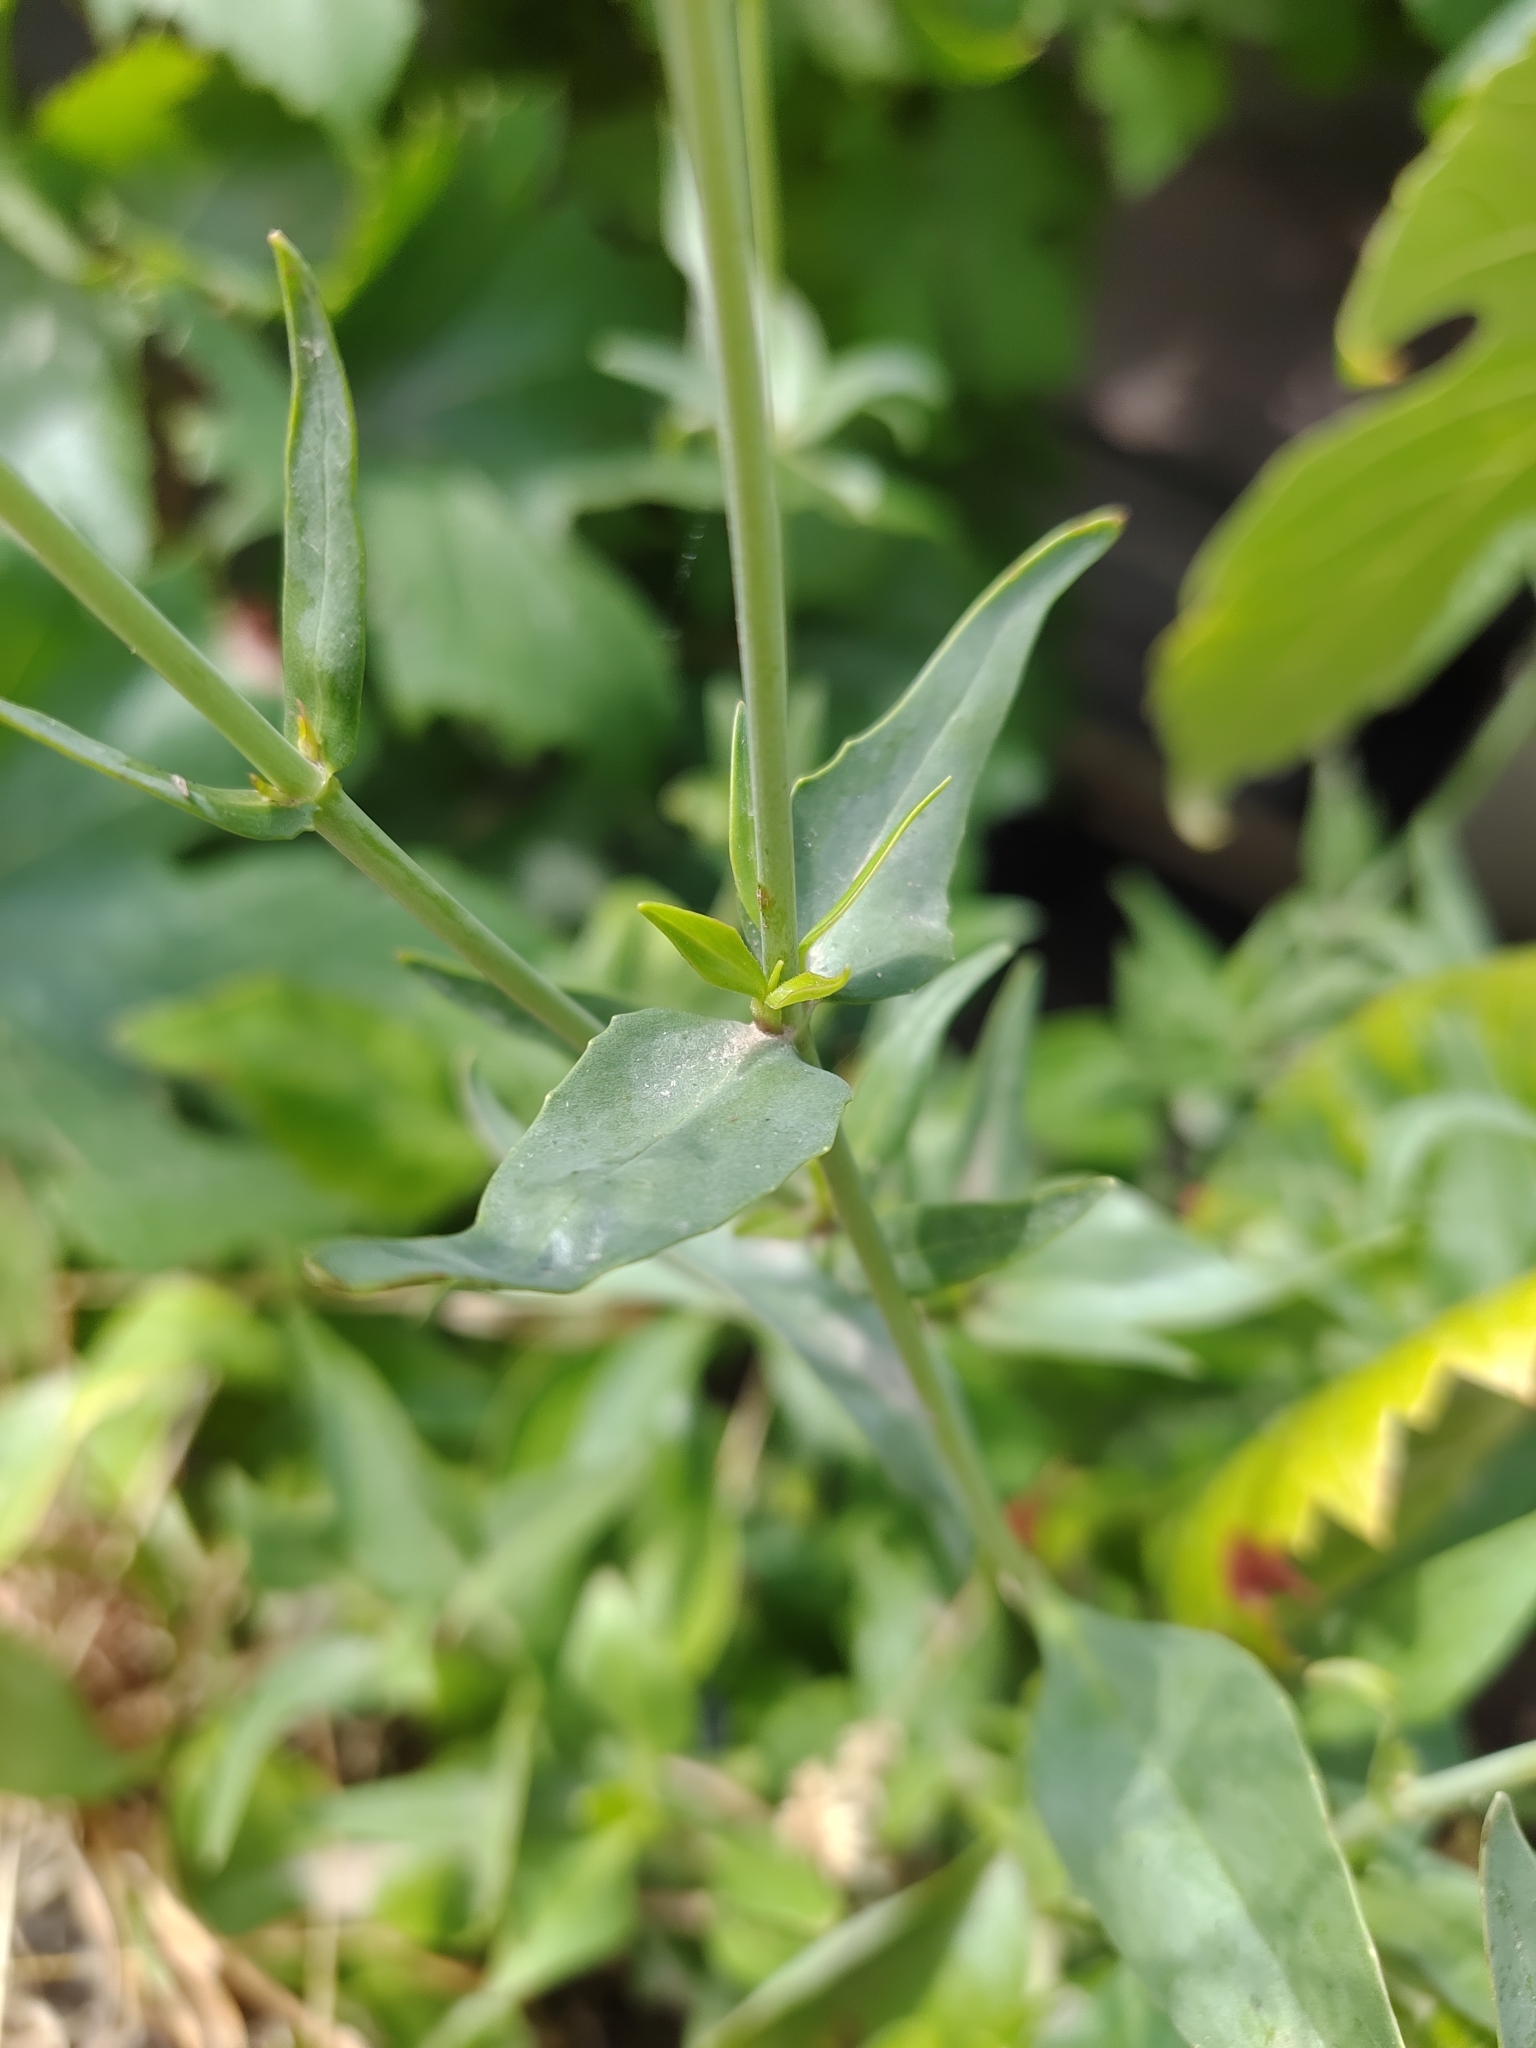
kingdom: Plantae
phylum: Tracheophyta
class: Magnoliopsida
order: Dipsacales
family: Caprifoliaceae
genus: Centranthus
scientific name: Centranthus ruber
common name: Red valerian
